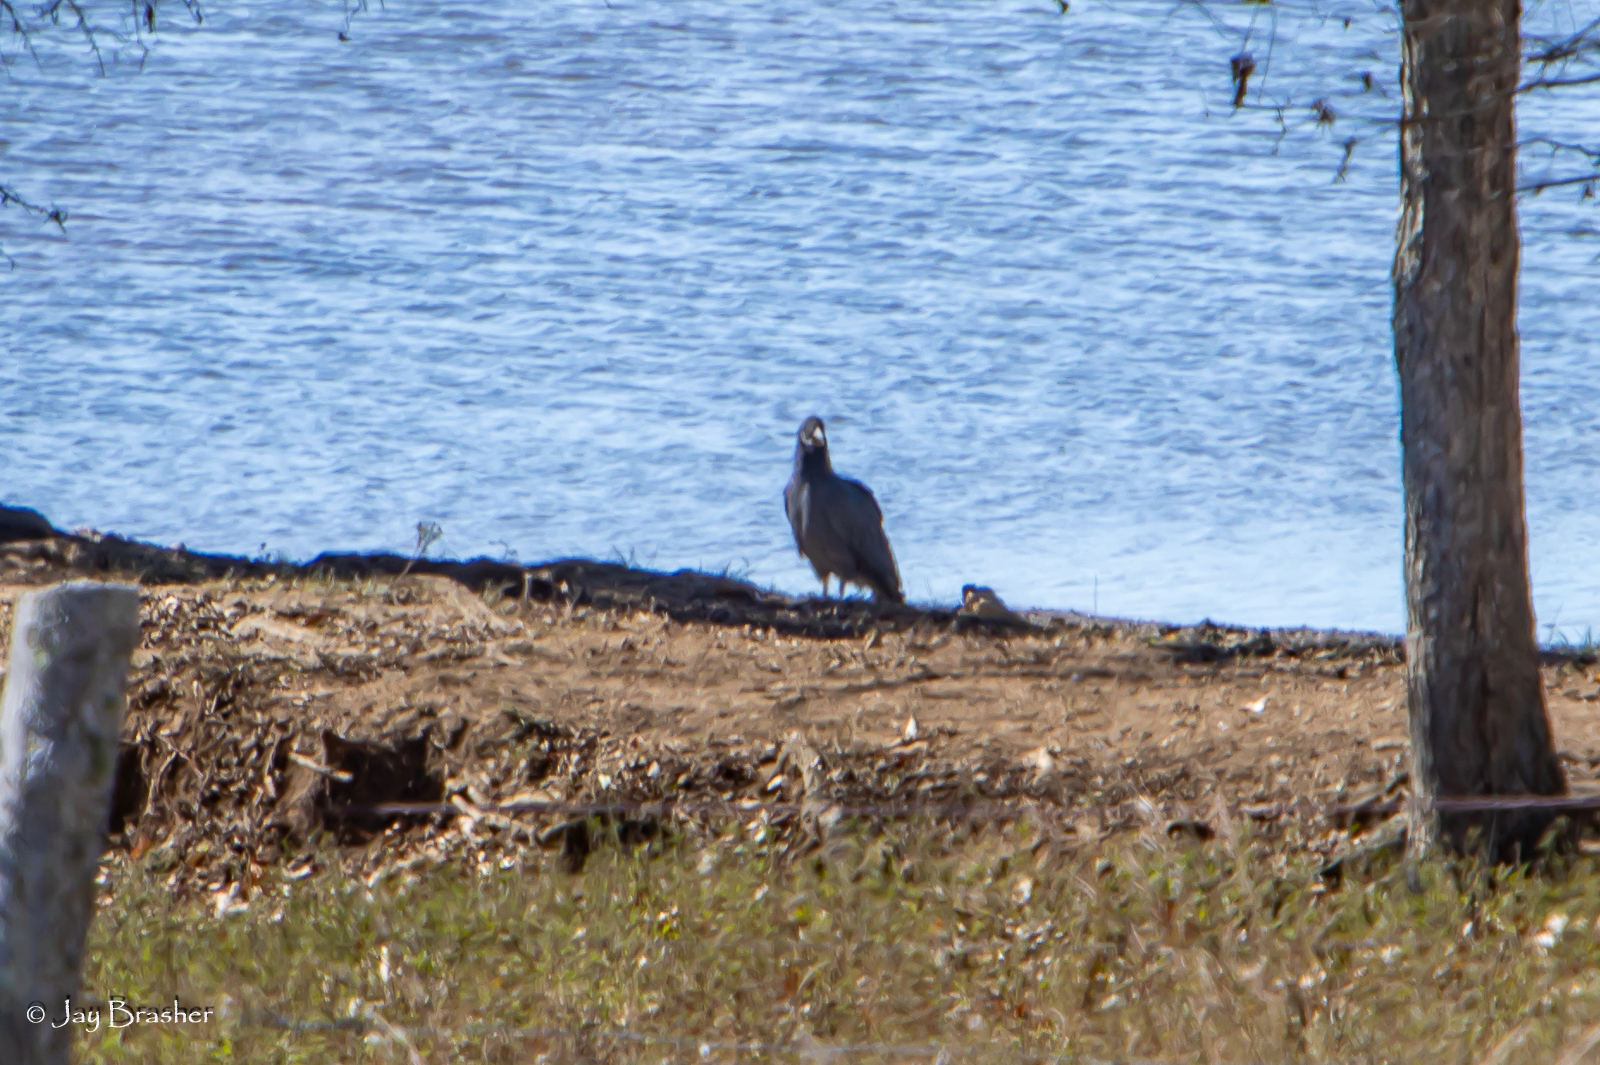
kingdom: Animalia
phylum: Chordata
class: Aves
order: Accipitriformes
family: Cathartidae
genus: Coragyps
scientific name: Coragyps atratus
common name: Black vulture
